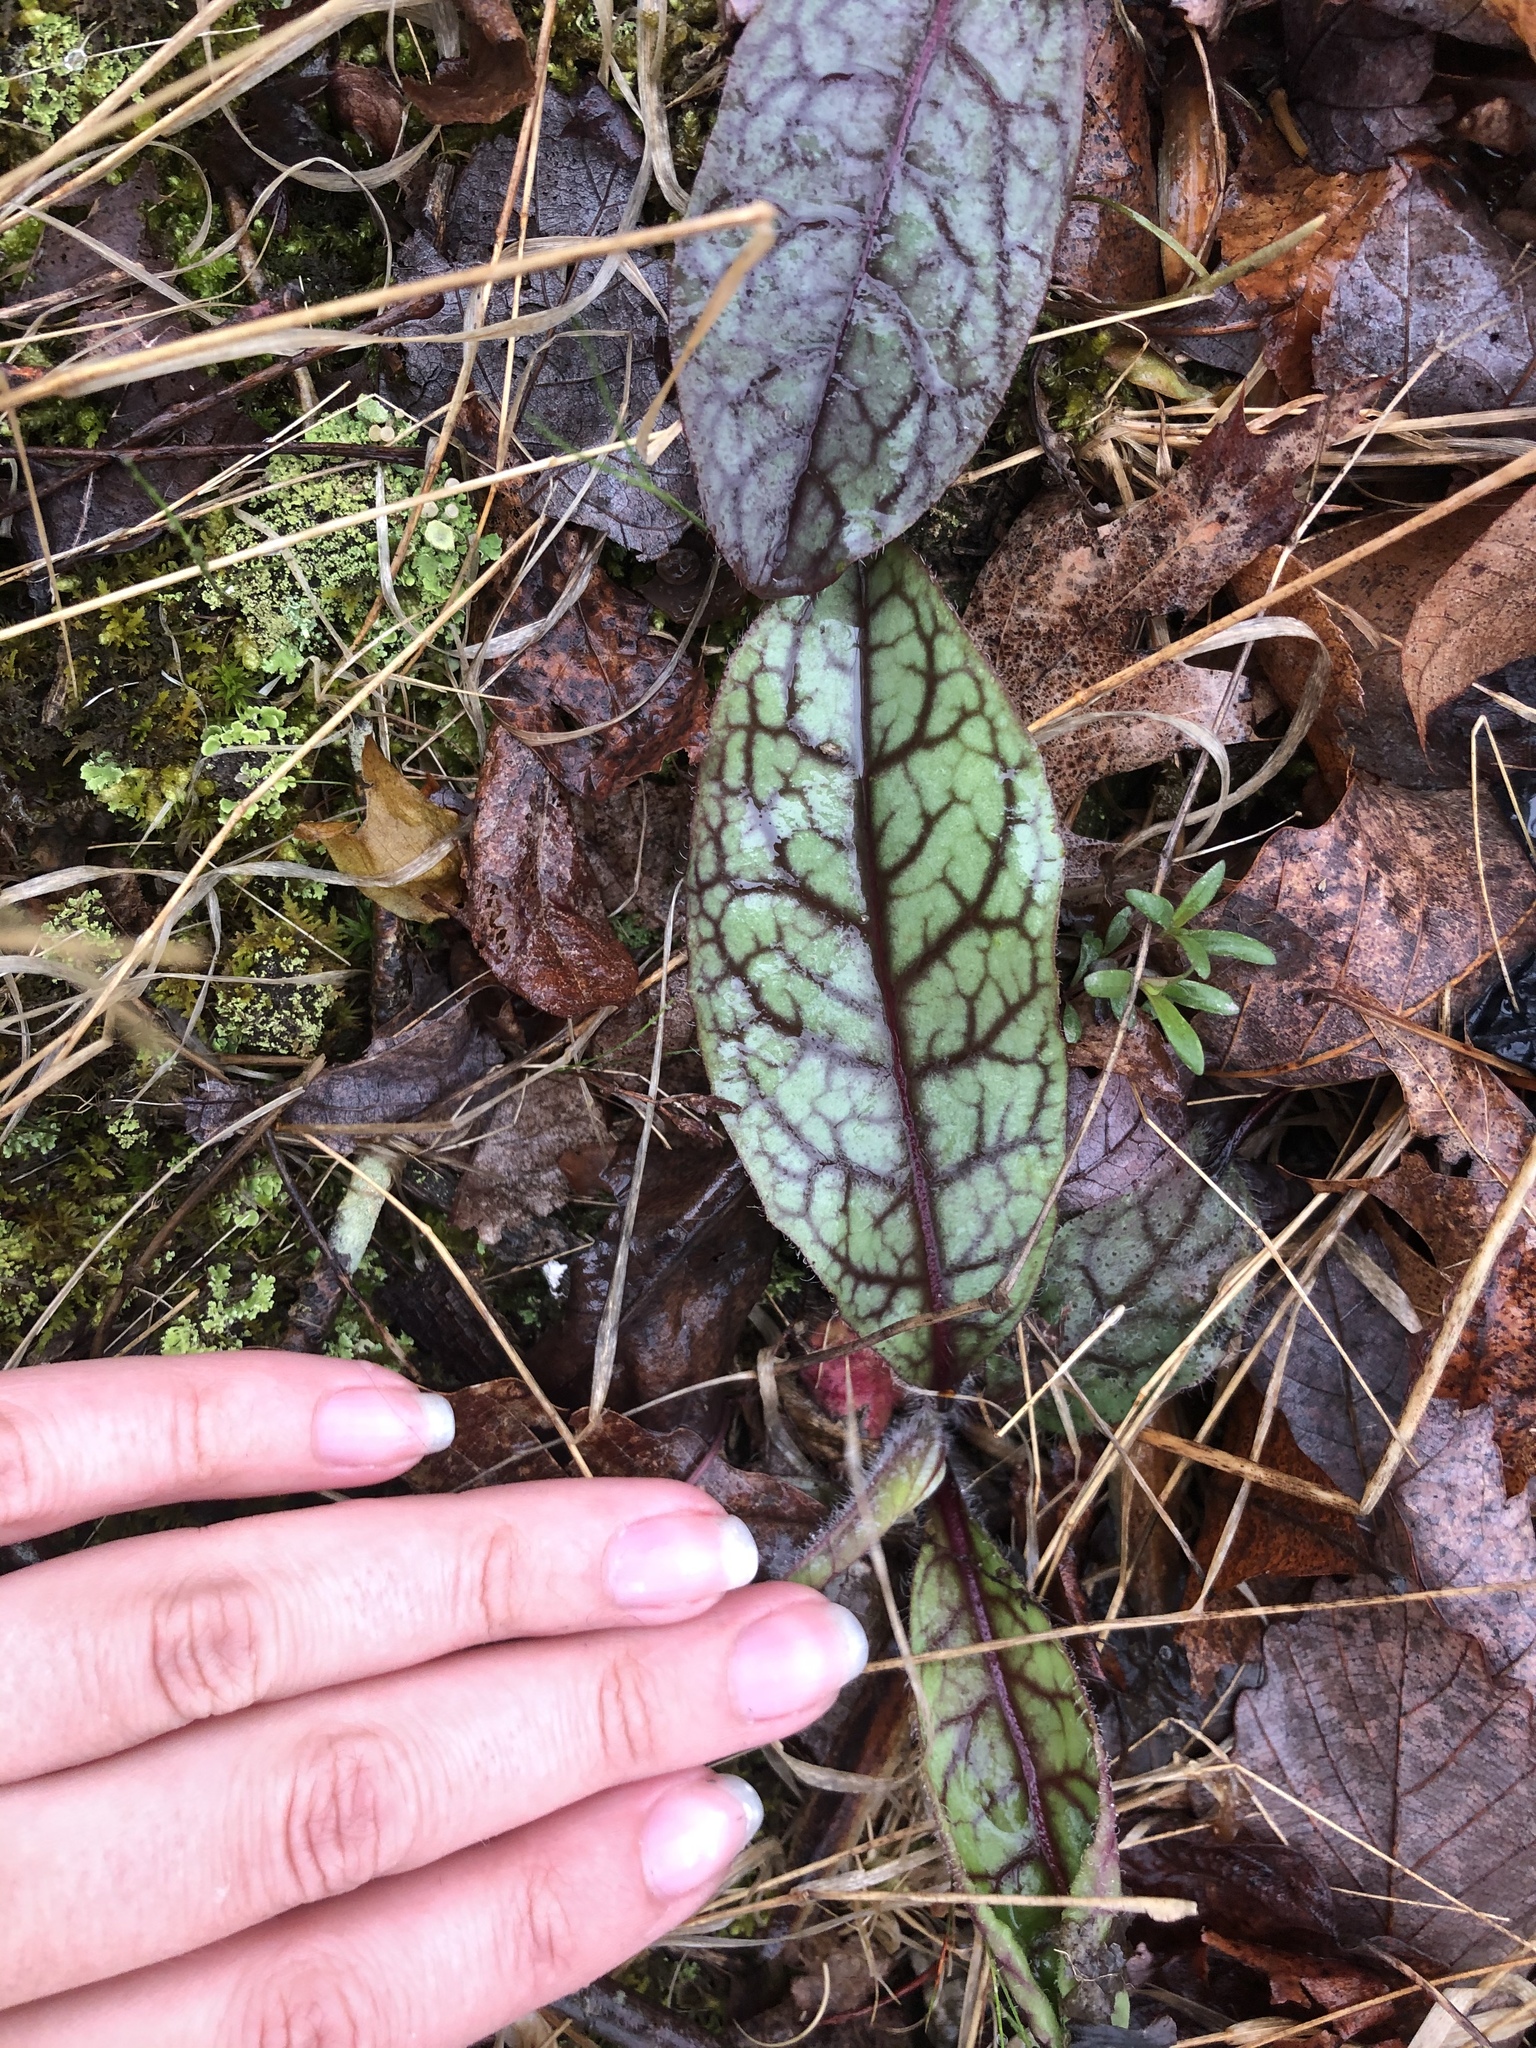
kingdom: Plantae
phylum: Tracheophyta
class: Magnoliopsida
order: Asterales
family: Asteraceae
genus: Hieracium
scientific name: Hieracium venosum
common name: Rattlesnake hawkweed
